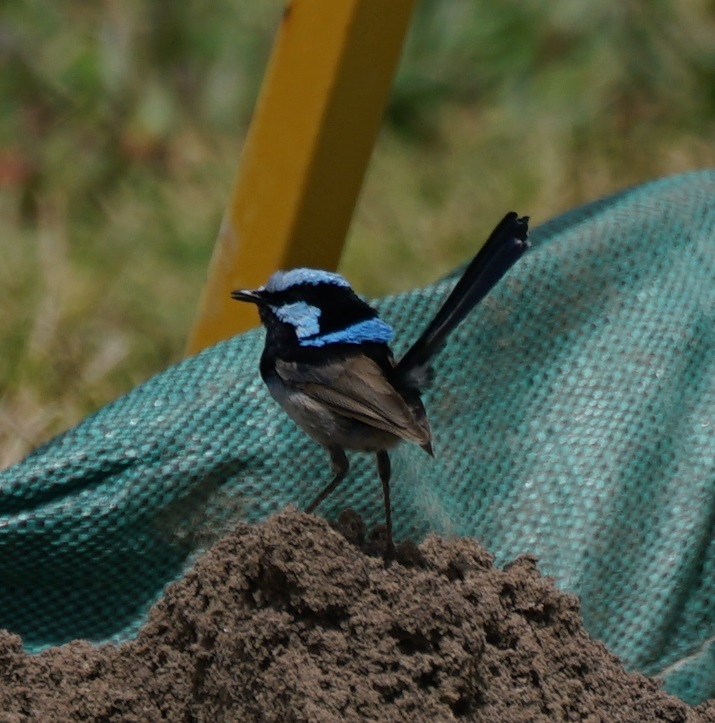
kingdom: Animalia
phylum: Chordata
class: Aves
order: Passeriformes
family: Maluridae
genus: Malurus
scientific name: Malurus cyaneus
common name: Superb fairywren
